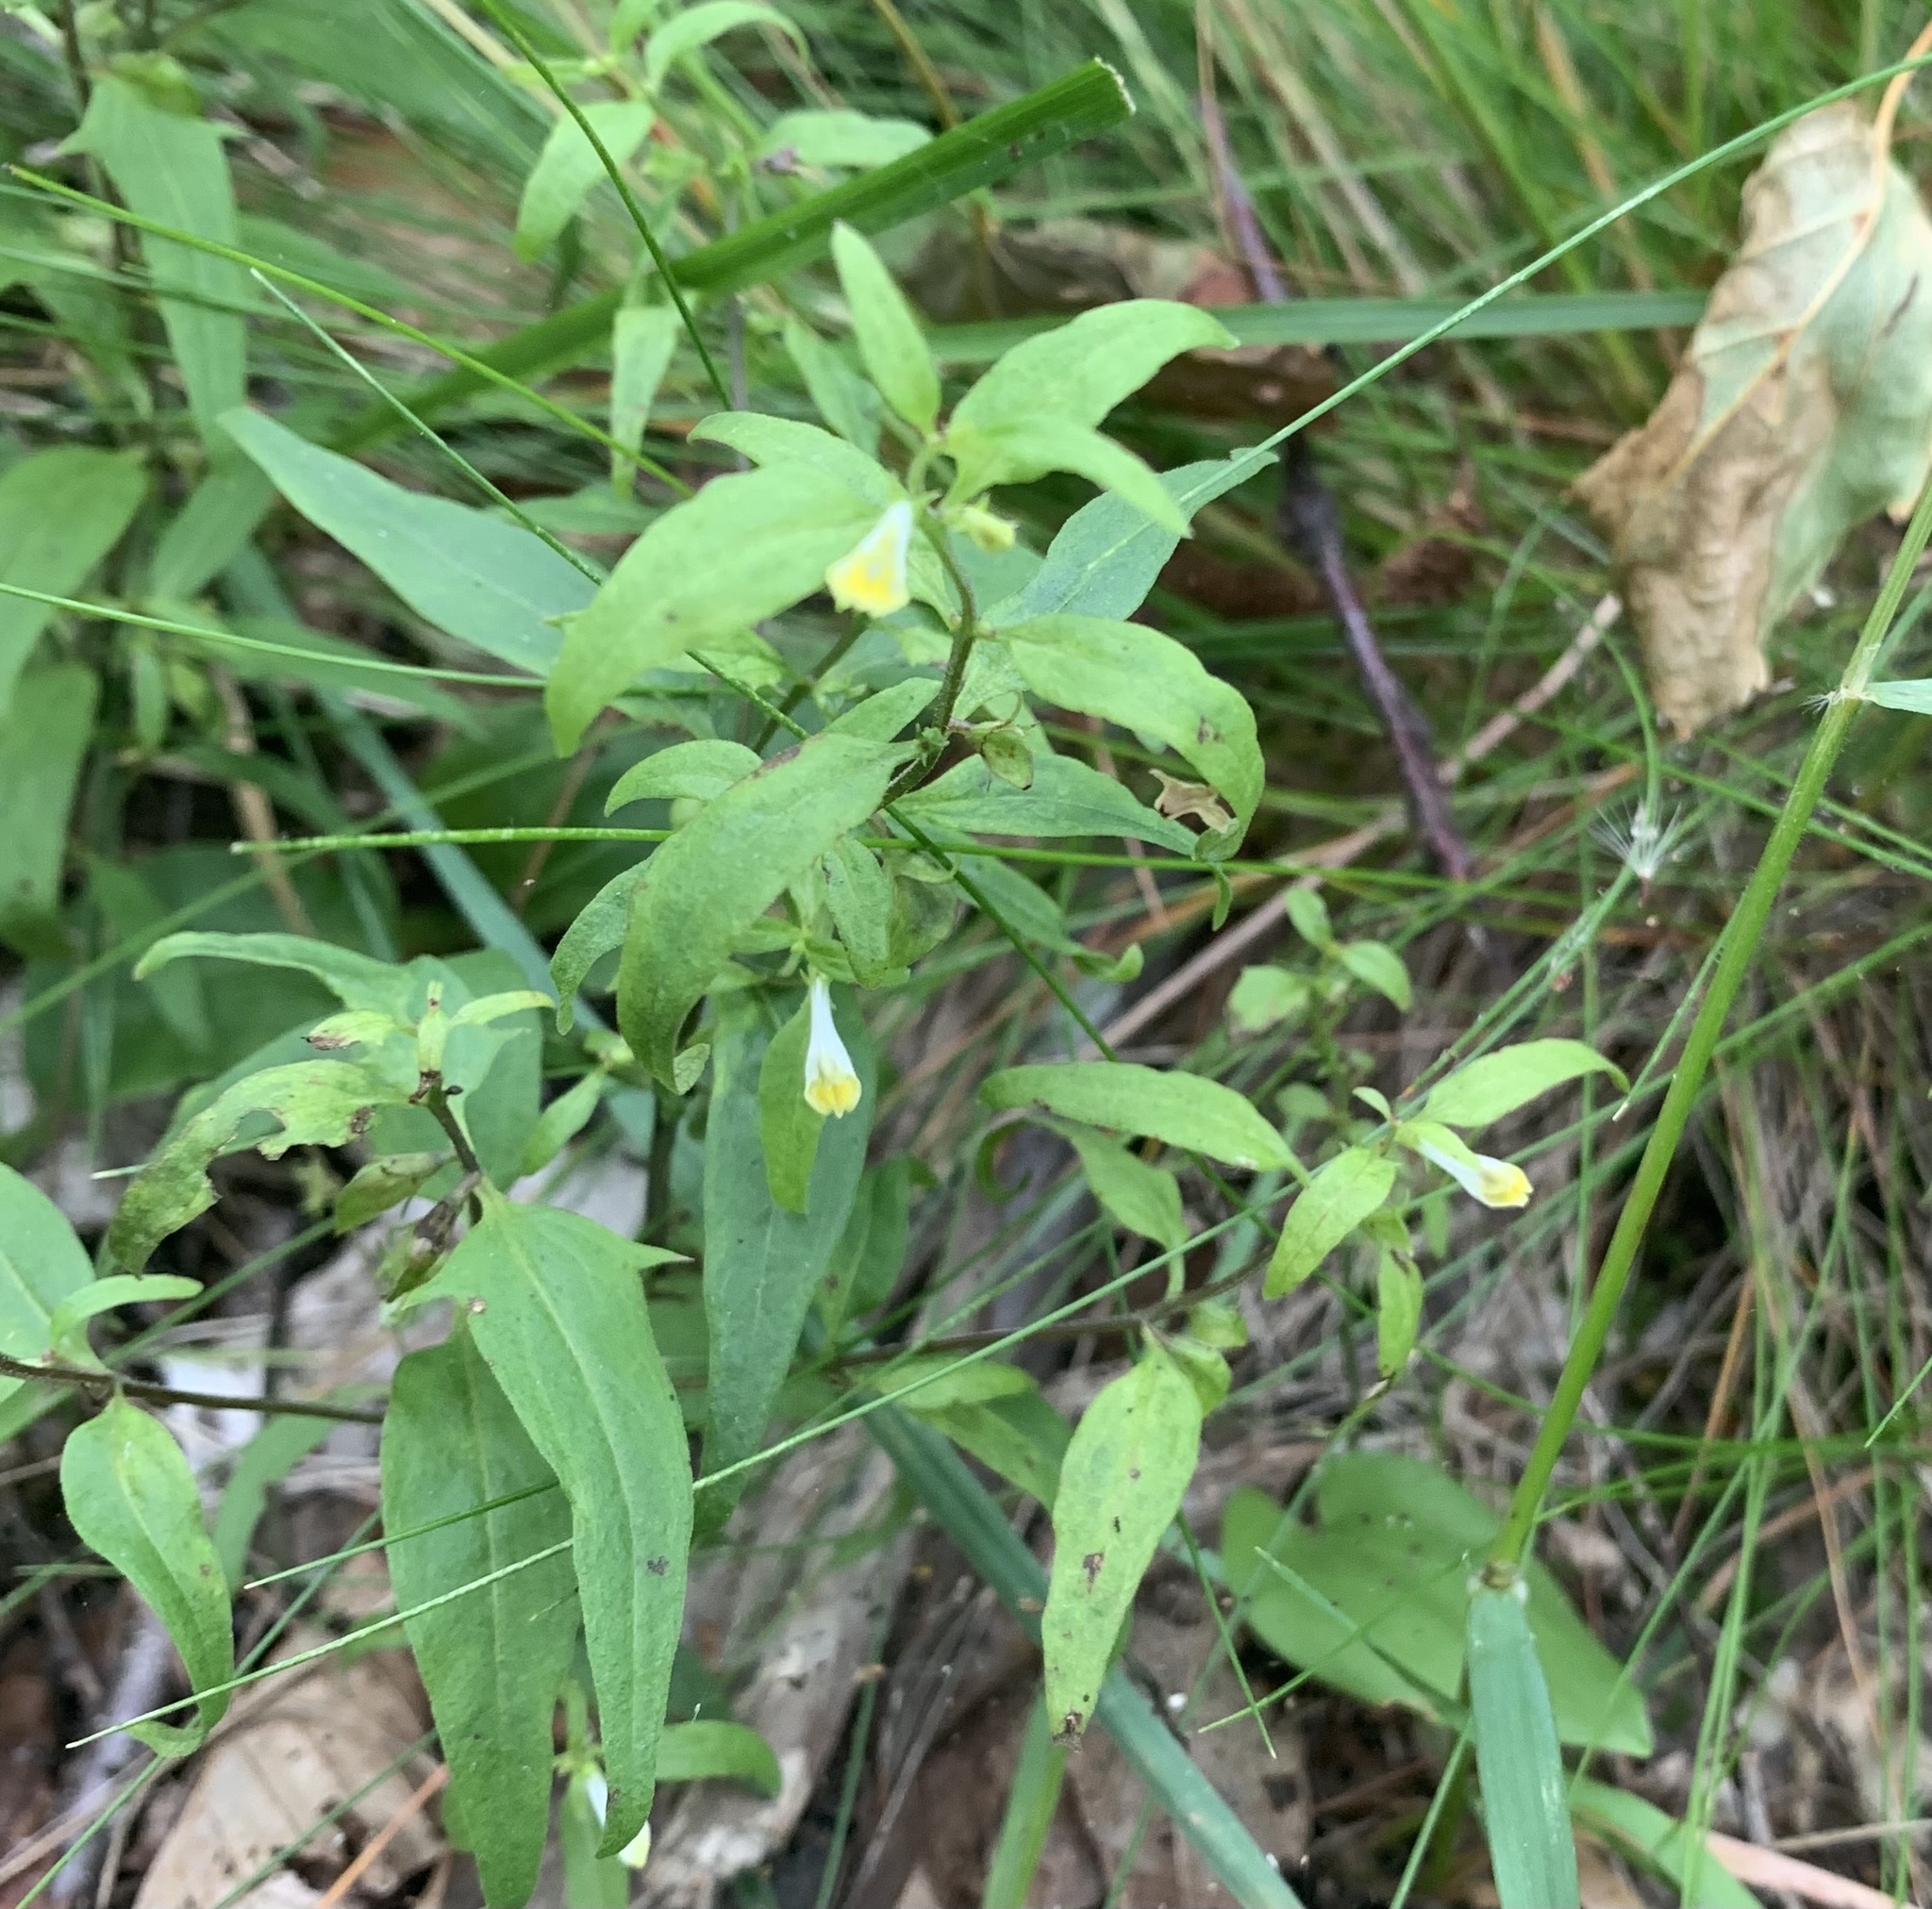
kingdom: Plantae
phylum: Tracheophyta
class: Magnoliopsida
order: Lamiales
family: Orobanchaceae
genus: Melampyrum
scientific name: Melampyrum lineare
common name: American cow-wheat
